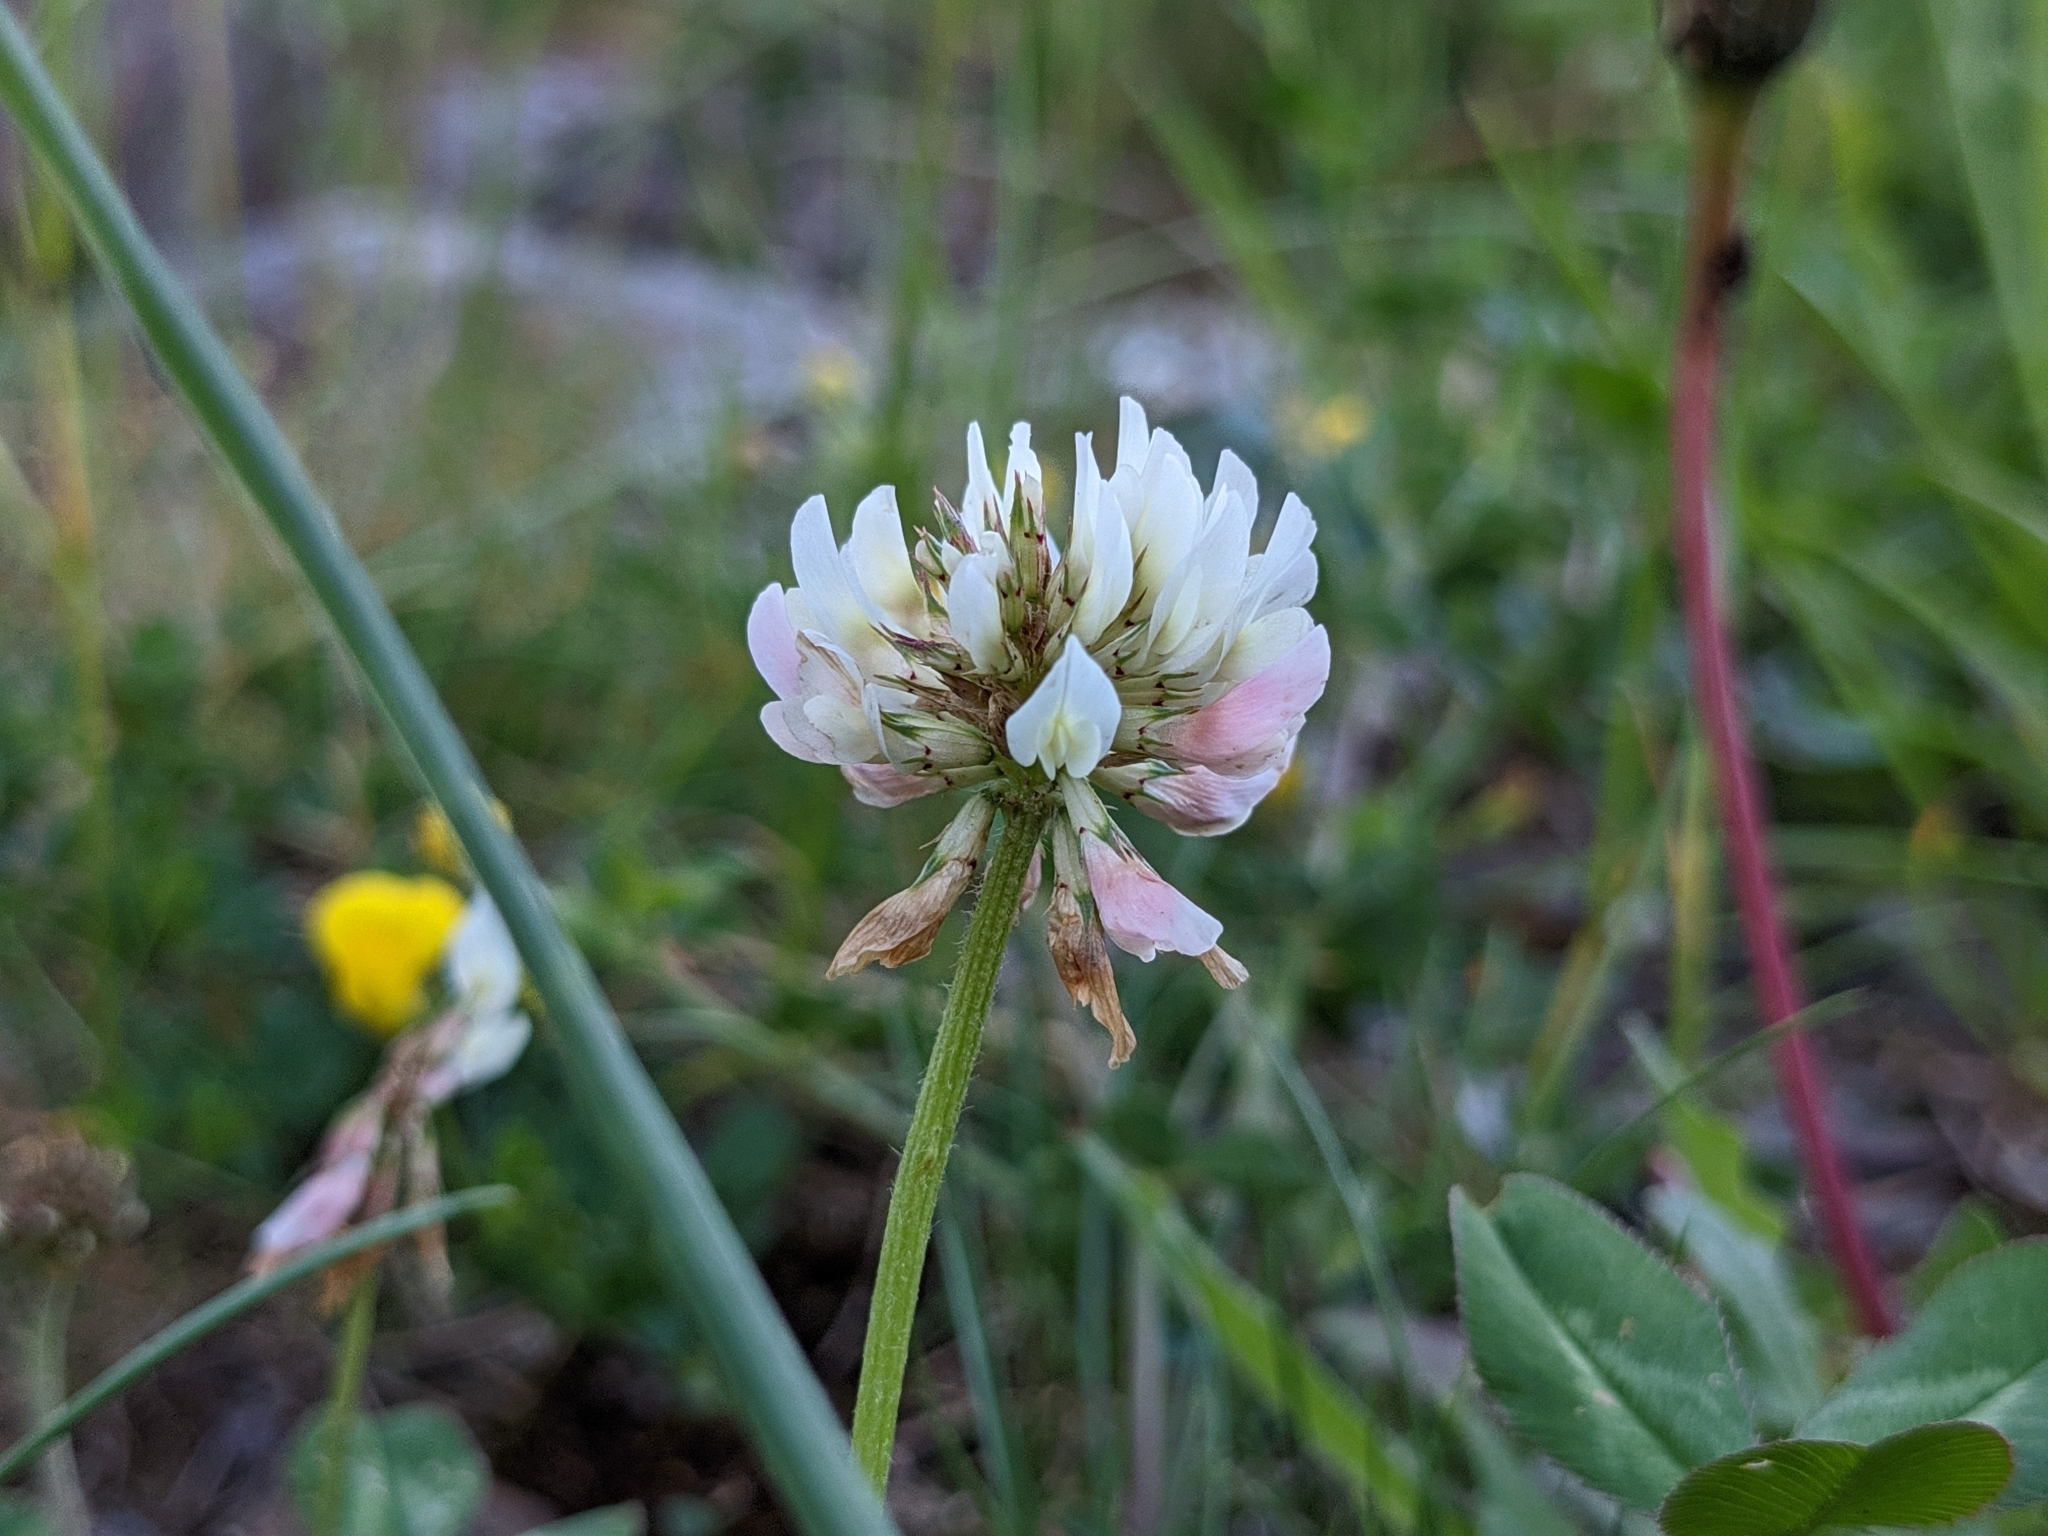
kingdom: Plantae
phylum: Tracheophyta
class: Magnoliopsida
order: Fabales
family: Fabaceae
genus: Trifolium
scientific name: Trifolium repens
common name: White clover
